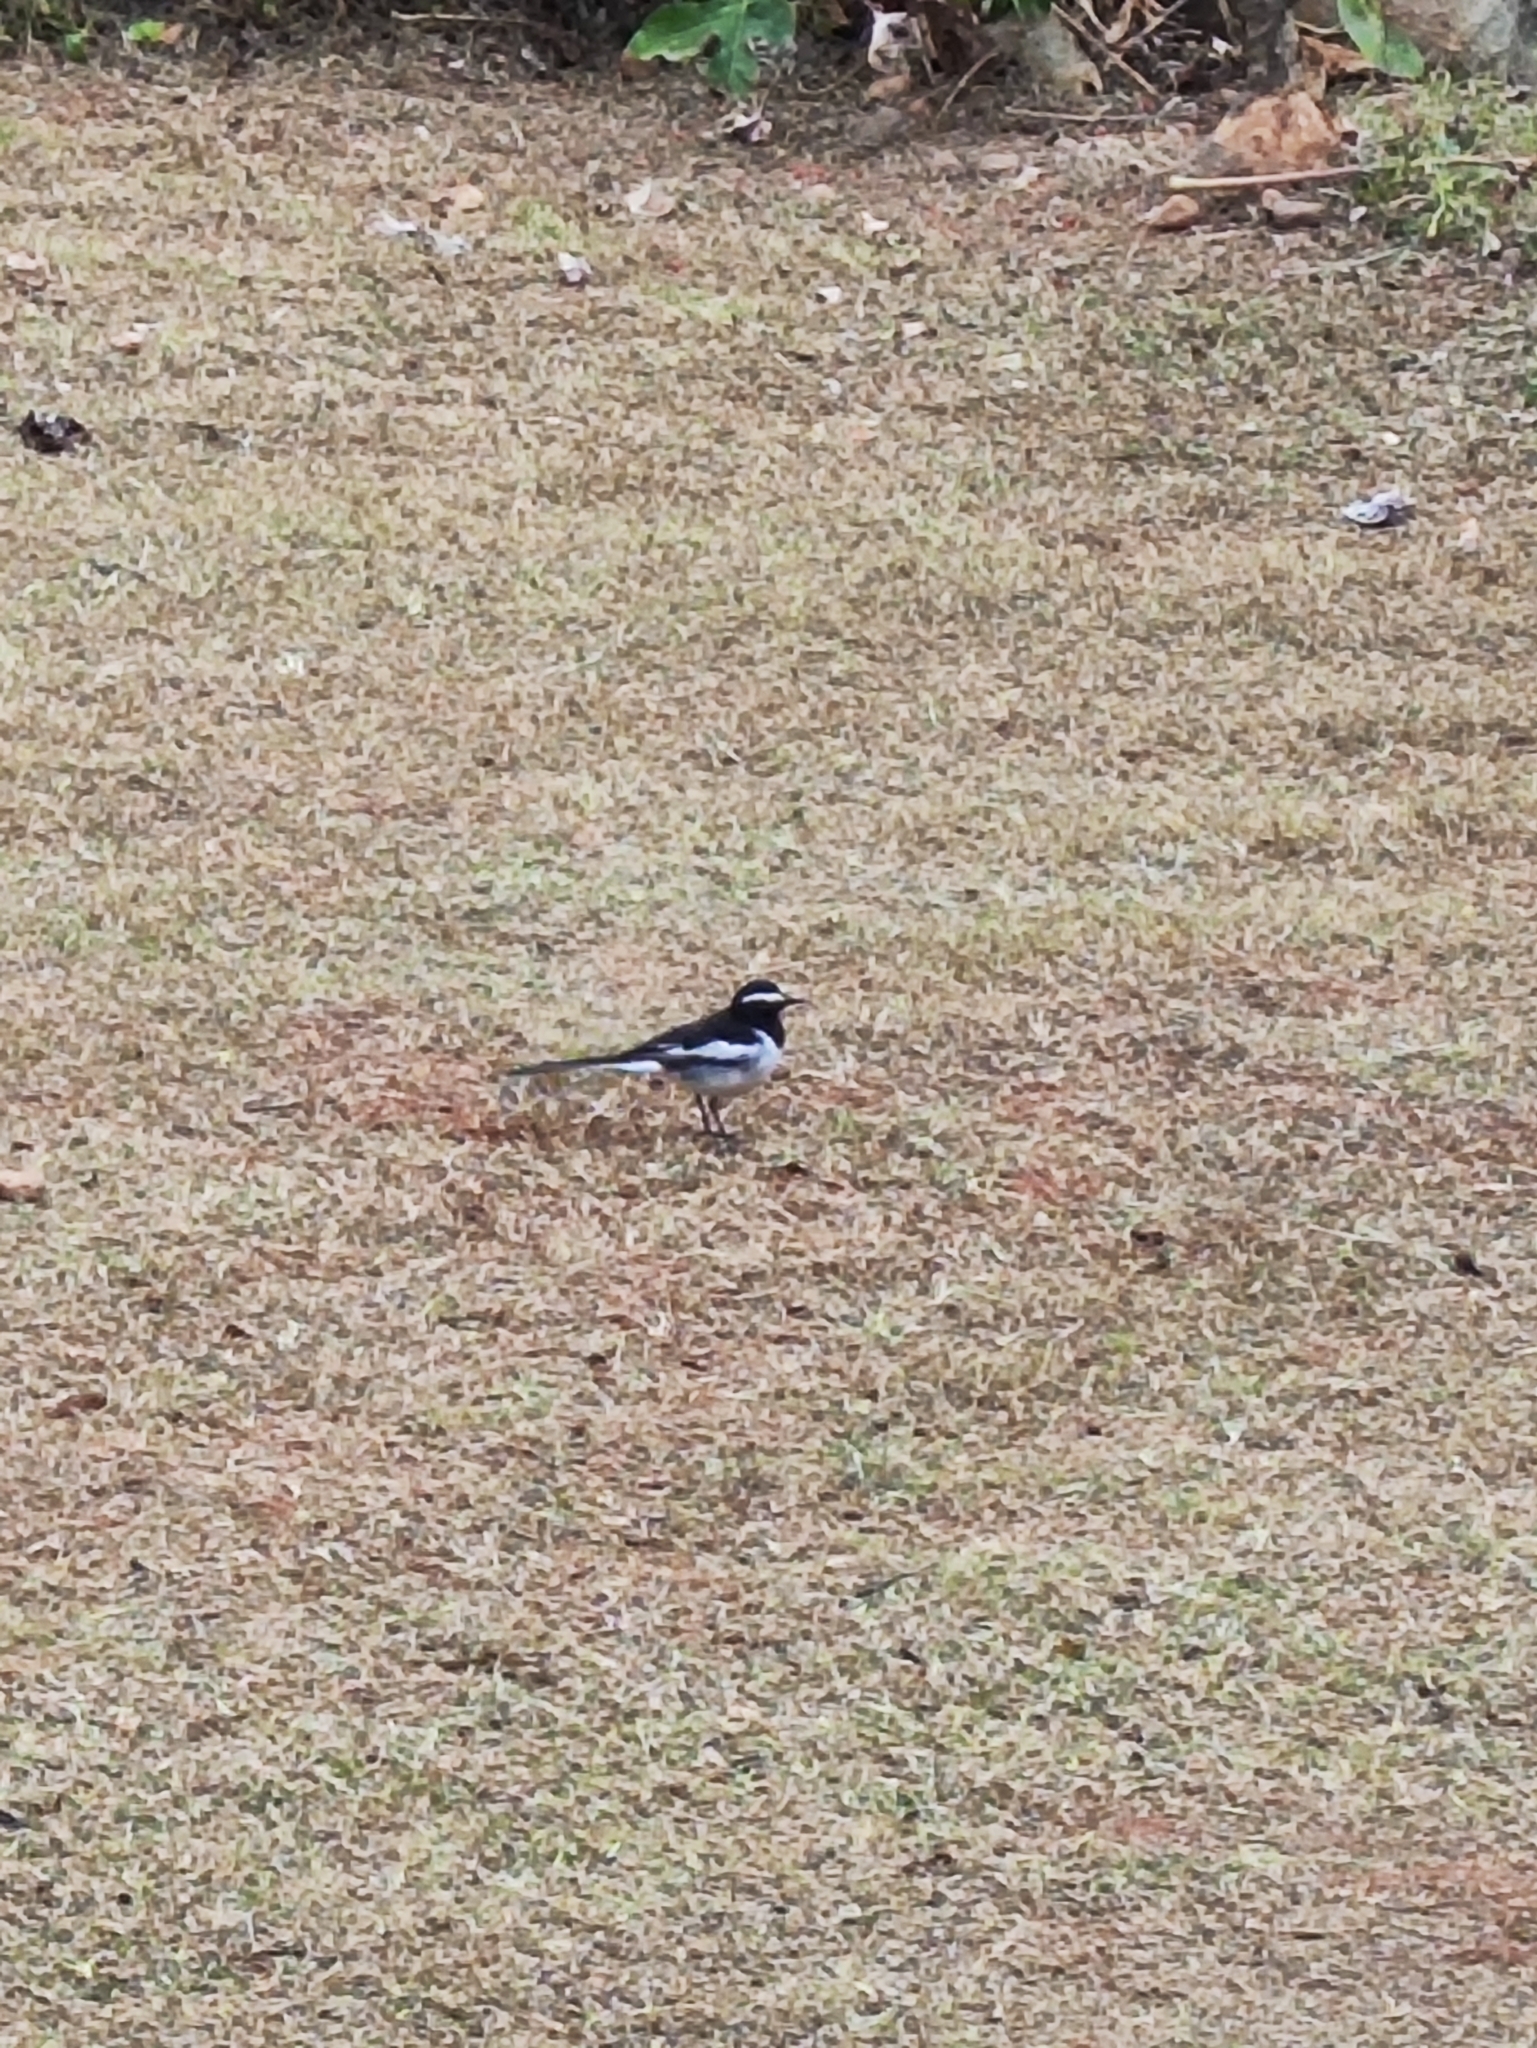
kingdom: Animalia
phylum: Chordata
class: Aves
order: Passeriformes
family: Motacillidae
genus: Motacilla
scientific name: Motacilla maderaspatensis
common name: White-browed wagtail
